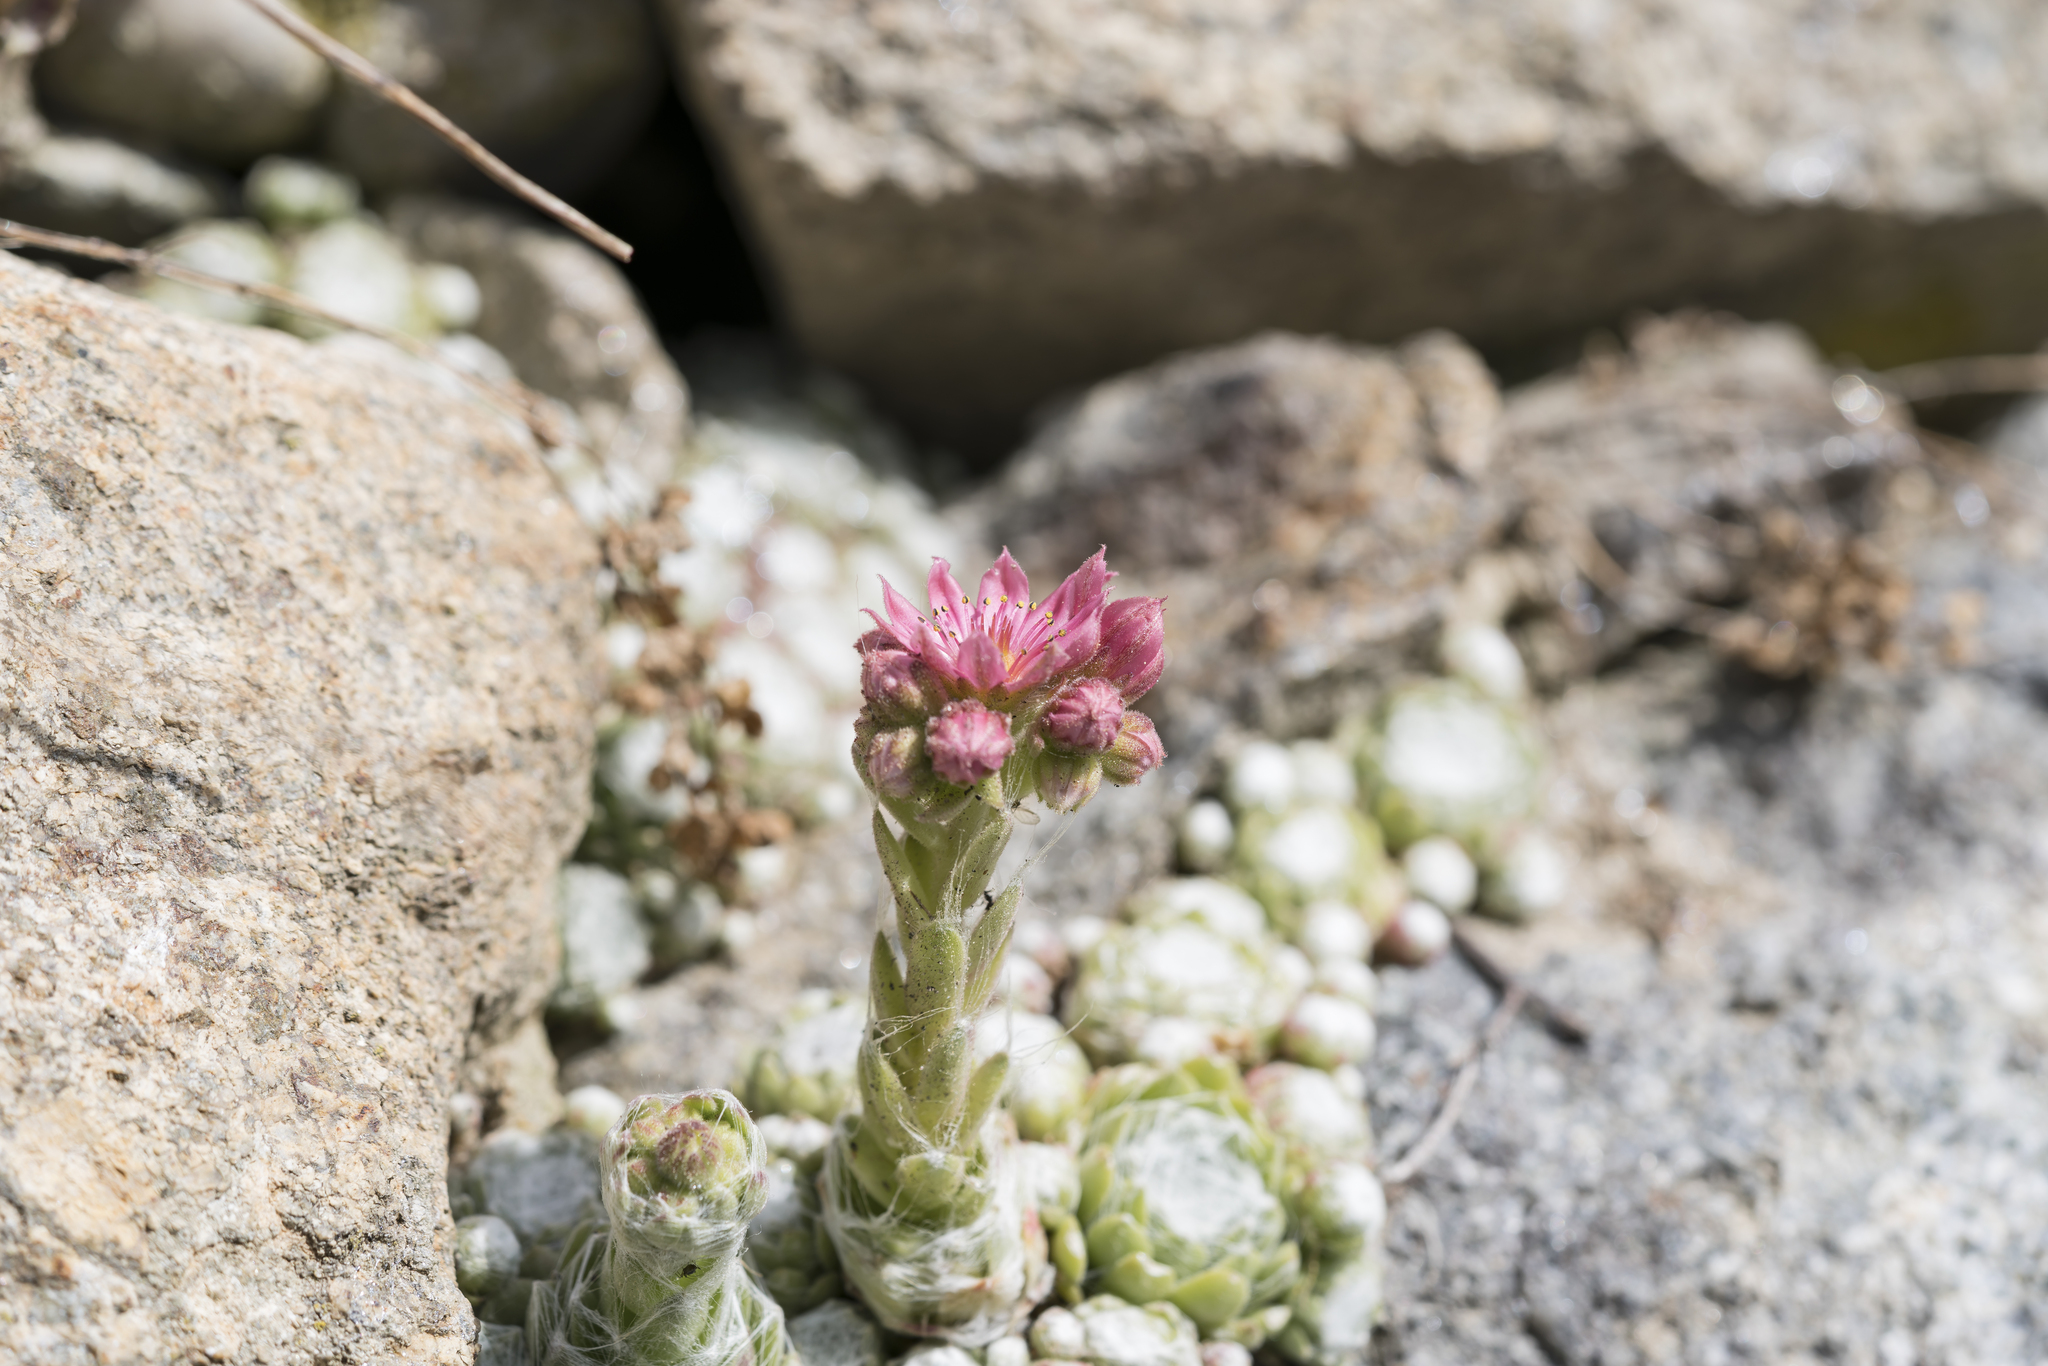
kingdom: Plantae
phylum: Tracheophyta
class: Magnoliopsida
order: Saxifragales
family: Crassulaceae
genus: Sempervivum
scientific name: Sempervivum arachnoideum
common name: Cobweb house-leek
